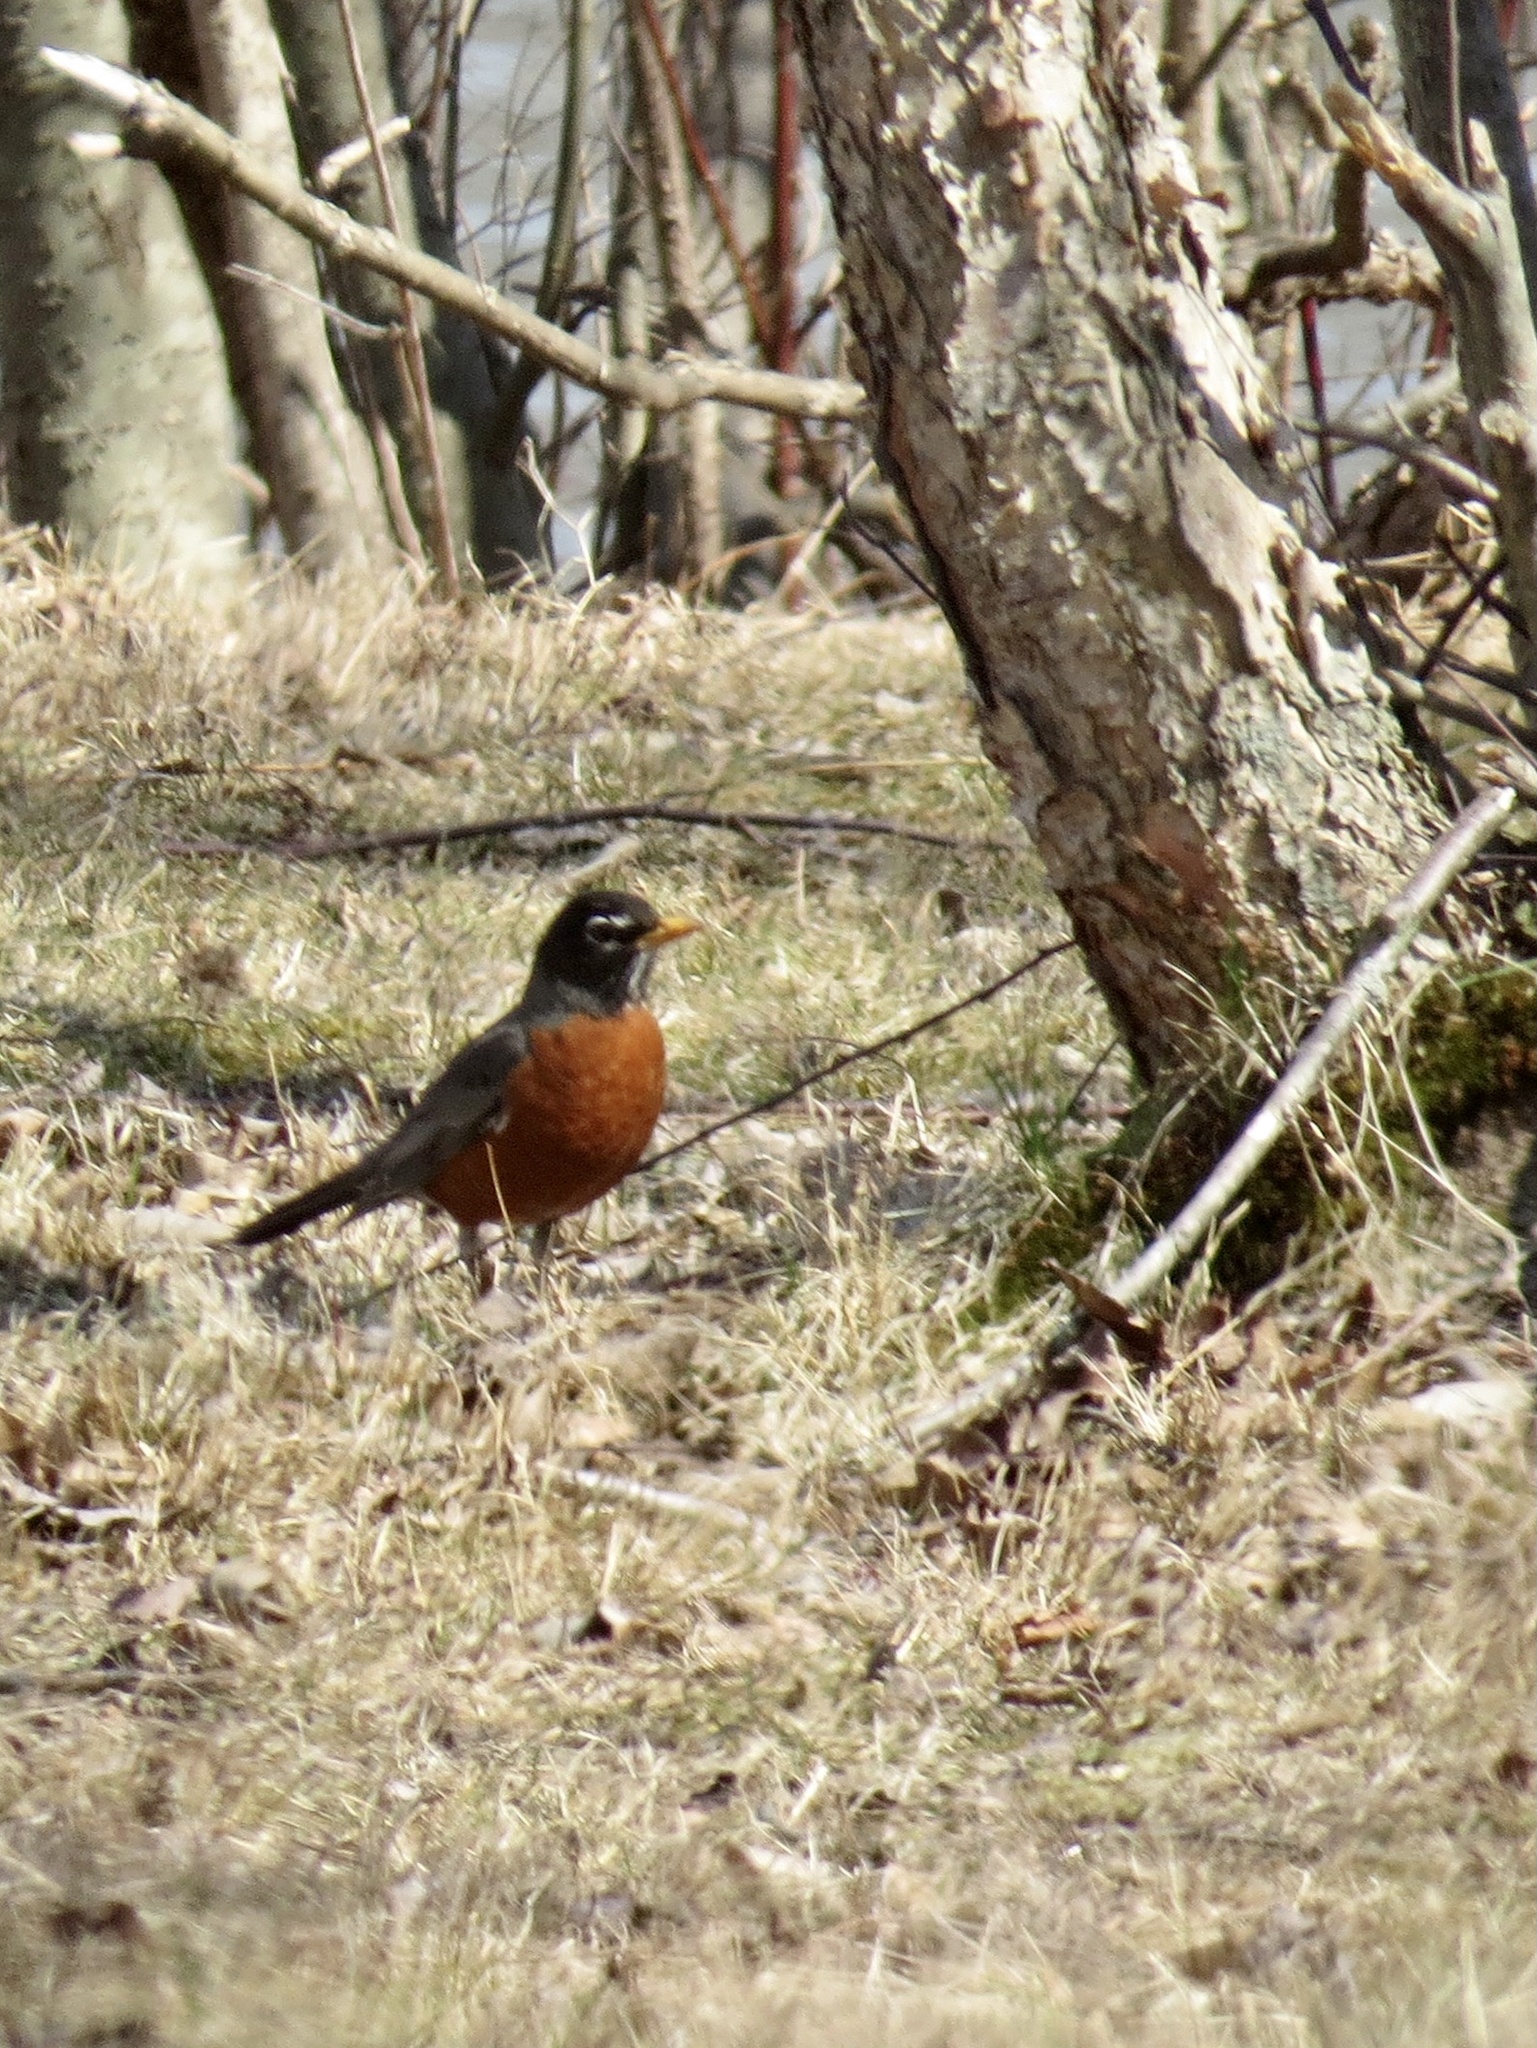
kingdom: Animalia
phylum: Chordata
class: Aves
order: Passeriformes
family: Turdidae
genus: Turdus
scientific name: Turdus migratorius
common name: American robin
